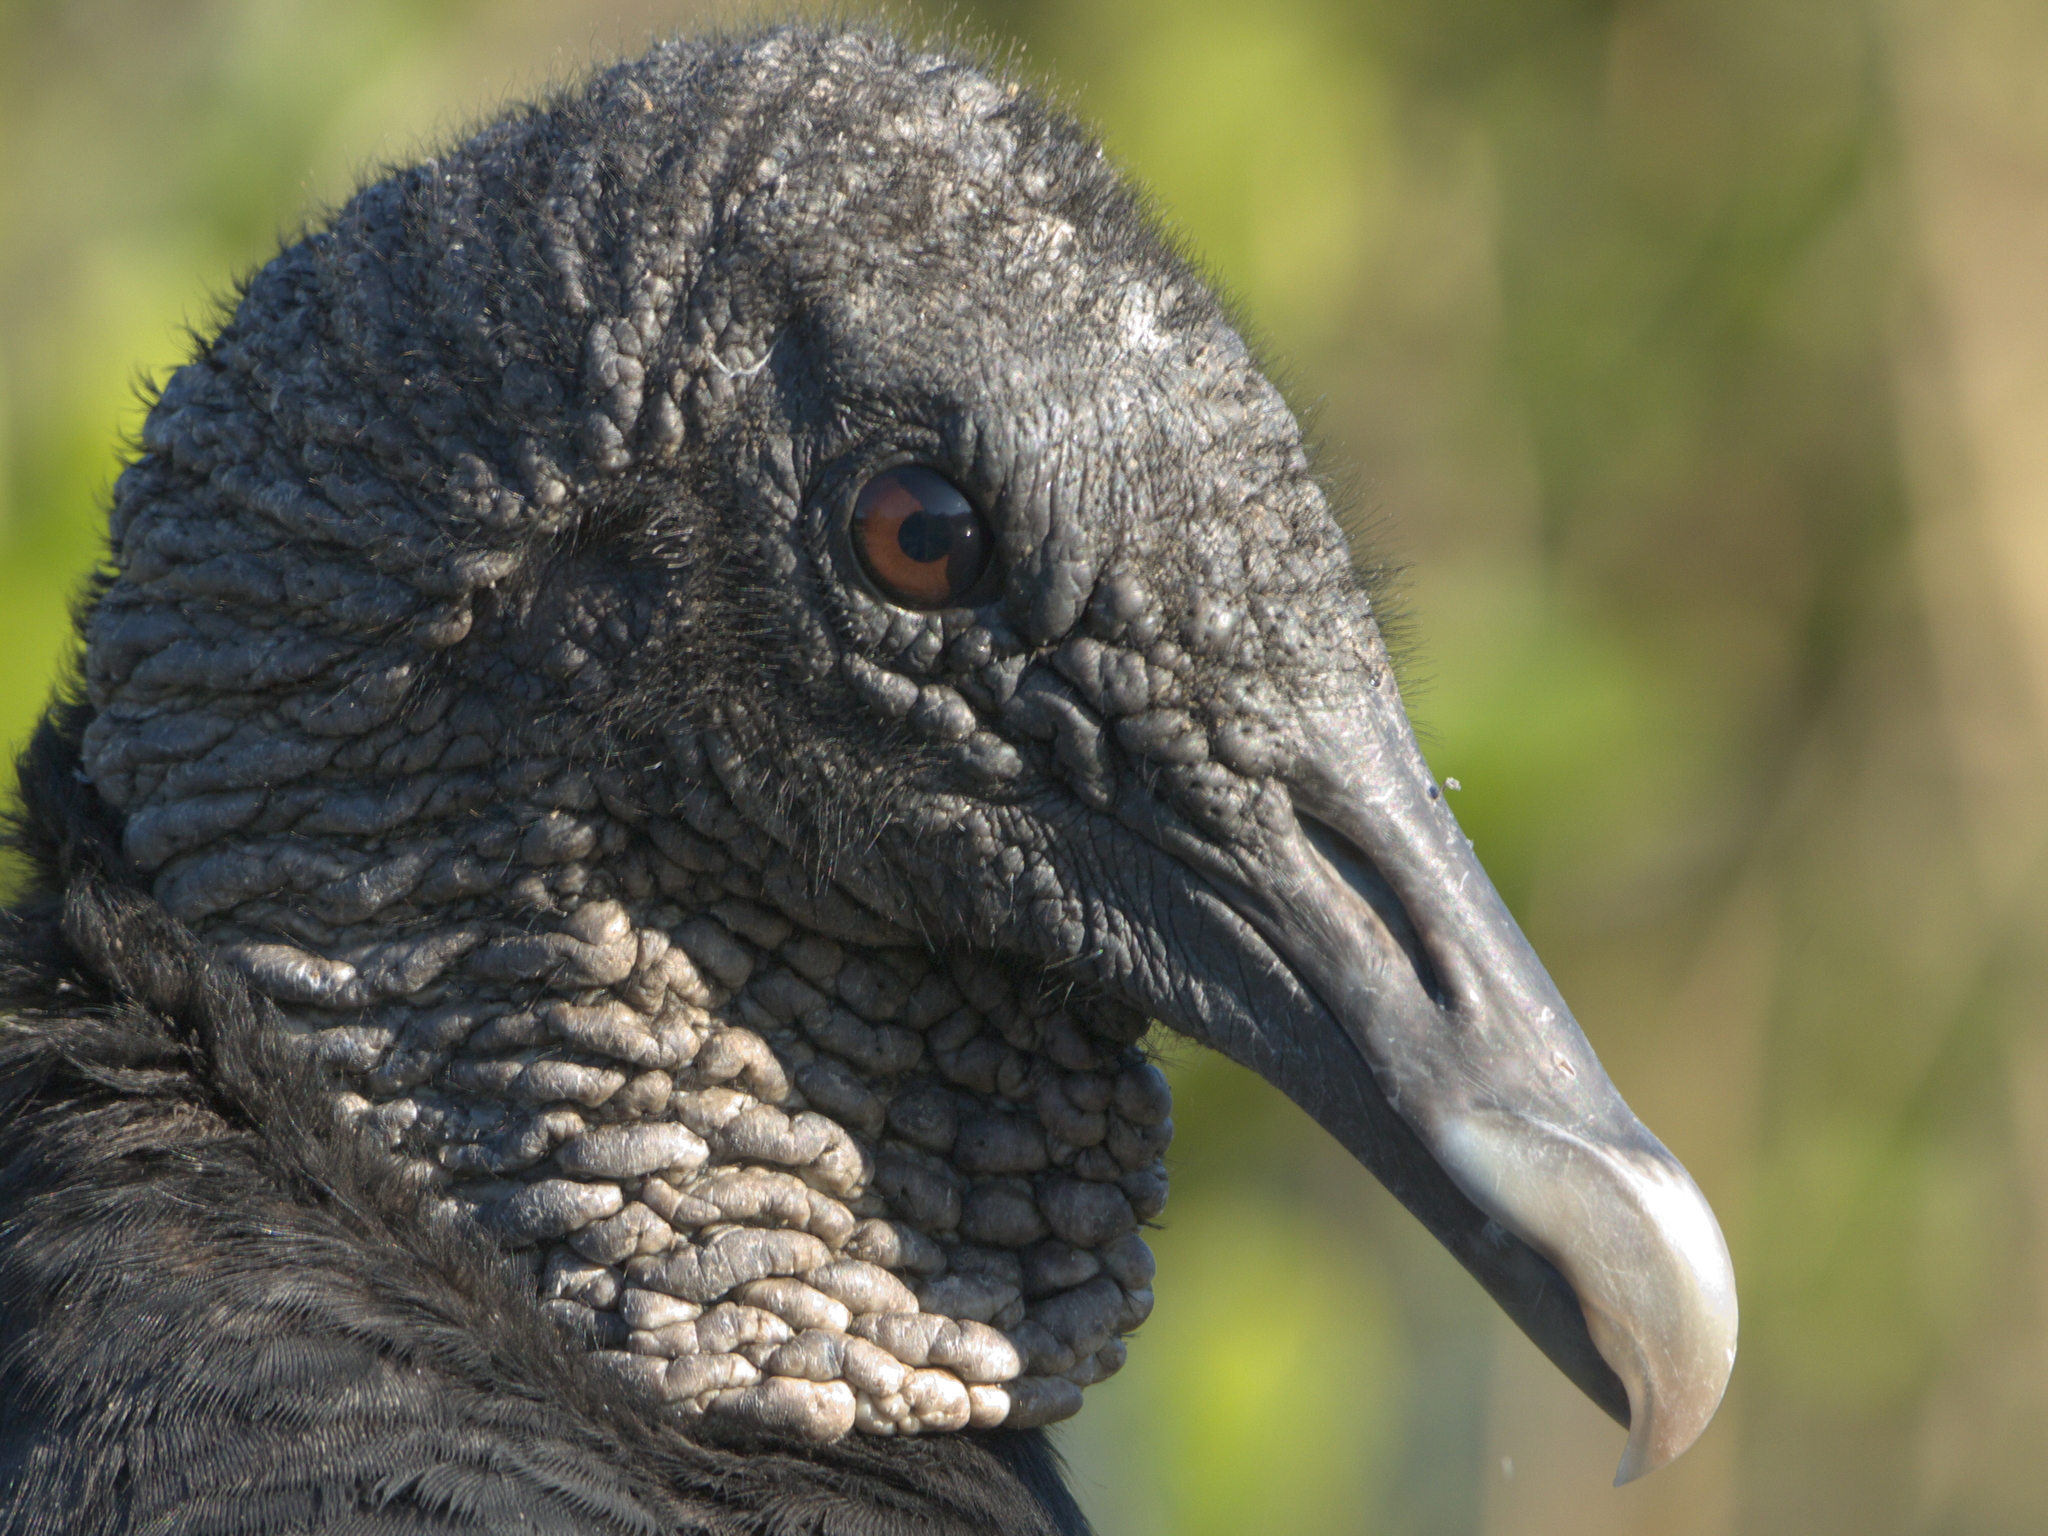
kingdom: Animalia
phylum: Chordata
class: Aves
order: Accipitriformes
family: Cathartidae
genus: Coragyps
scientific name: Coragyps atratus
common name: Black vulture
